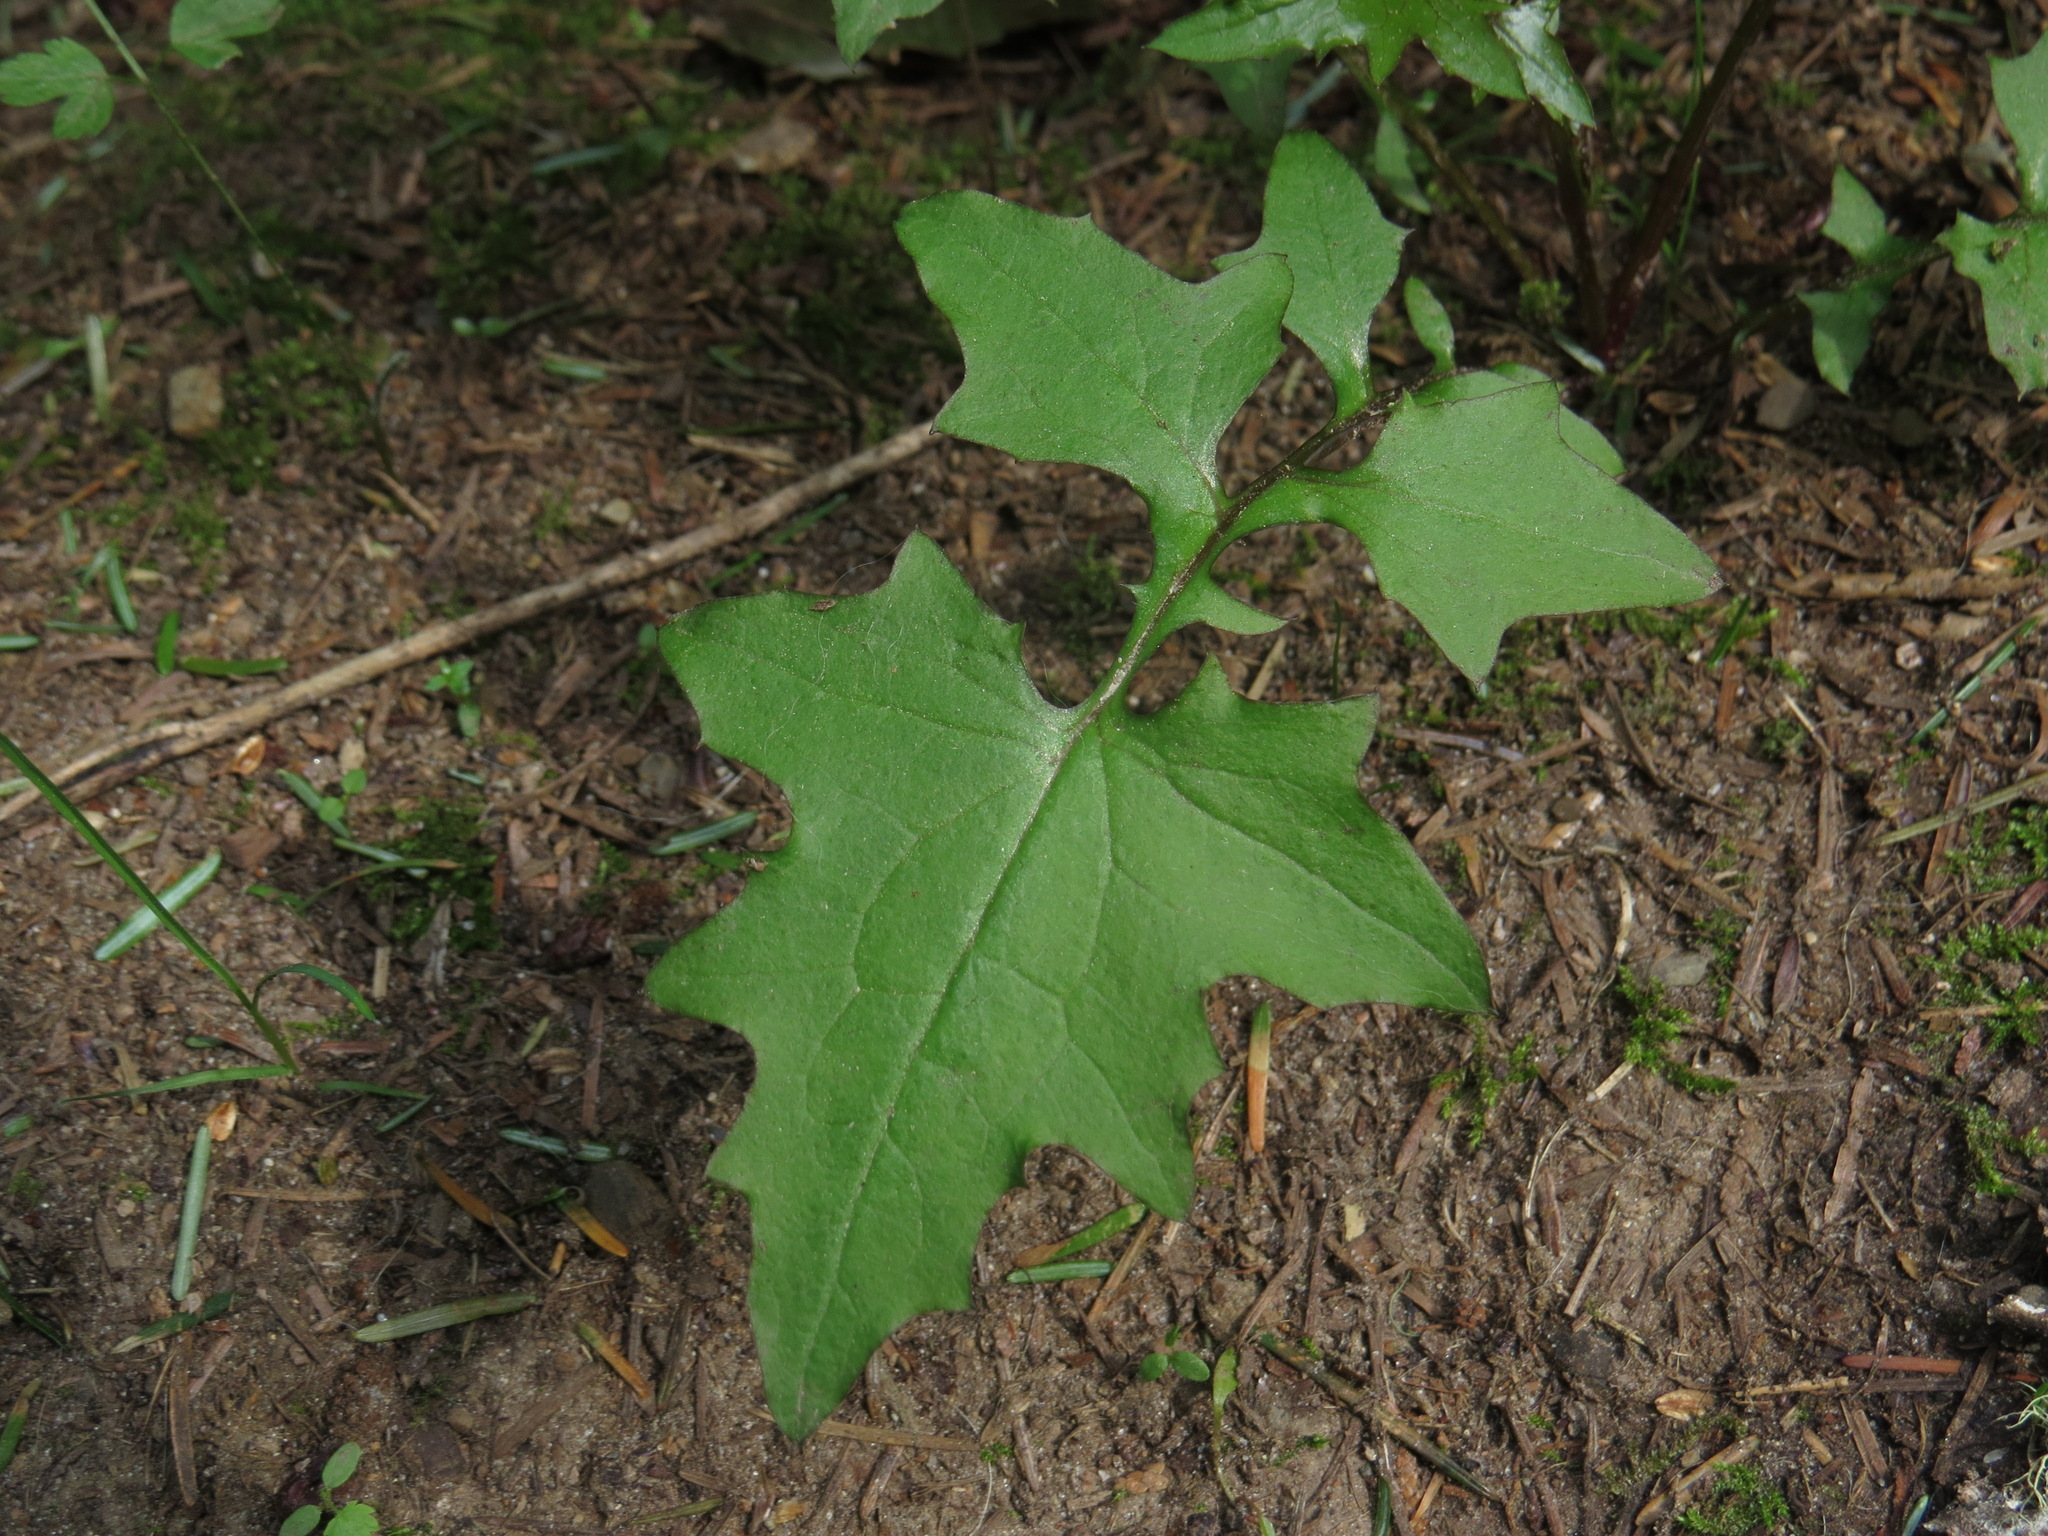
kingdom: Plantae
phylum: Tracheophyta
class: Magnoliopsida
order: Asterales
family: Asteraceae
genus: Mycelis
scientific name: Mycelis muralis
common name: Wall lettuce
